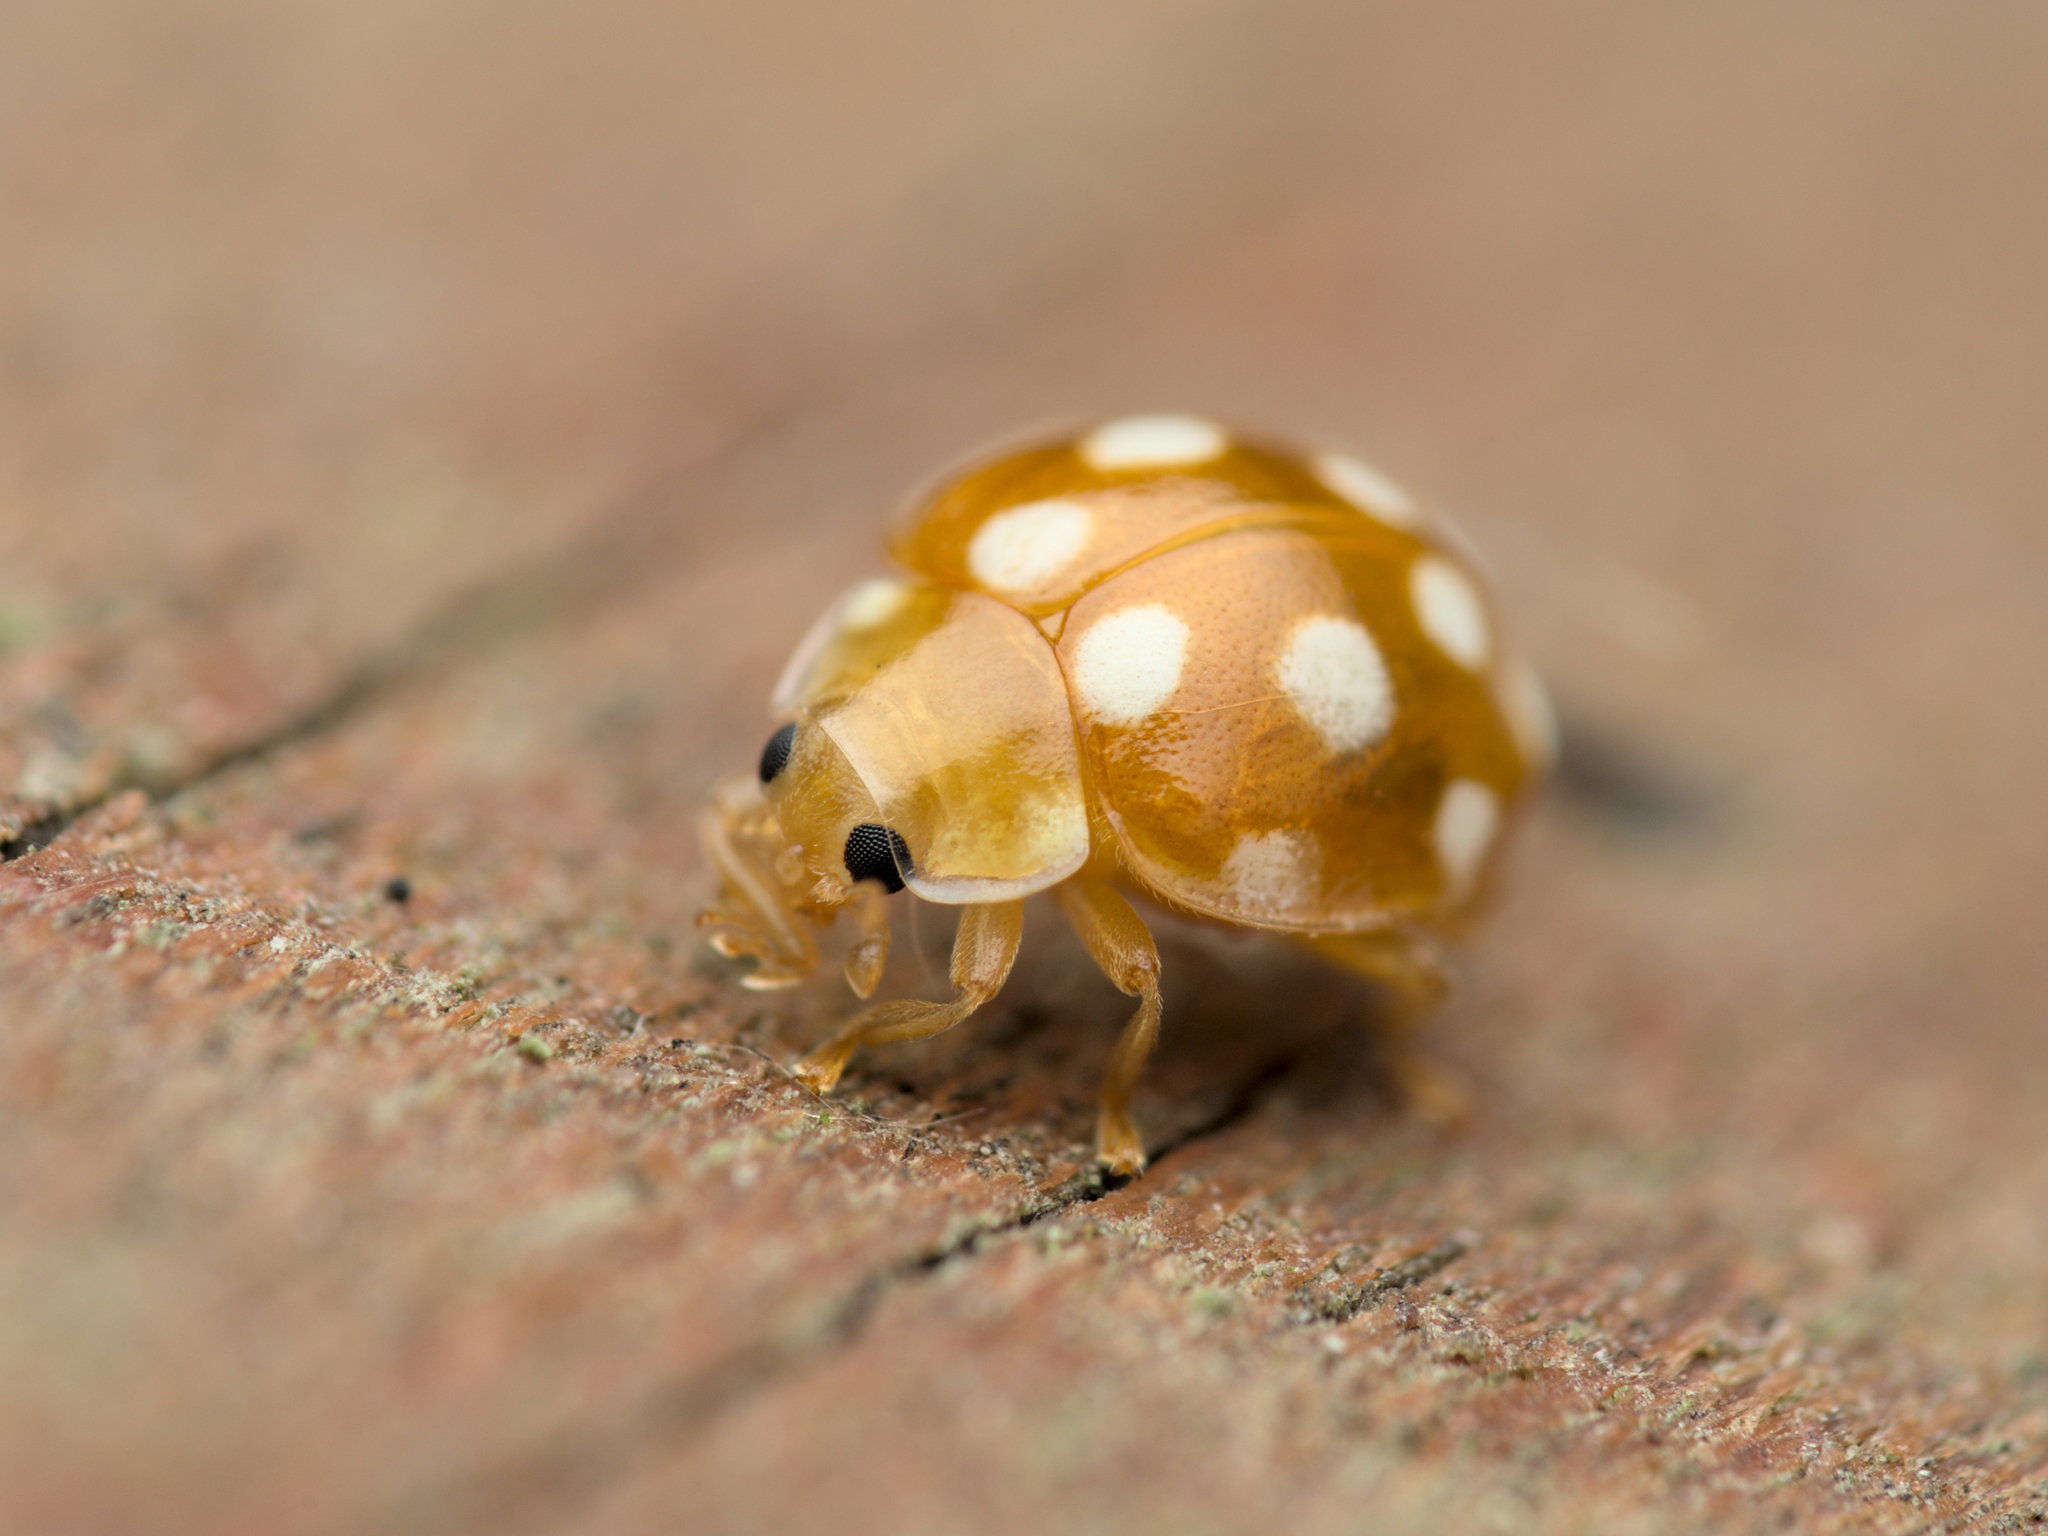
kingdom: Animalia
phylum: Arthropoda
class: Insecta
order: Coleoptera
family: Coccinellidae
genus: Vibidia
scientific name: Vibidia duodecimguttata
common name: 12-spot ladybird
